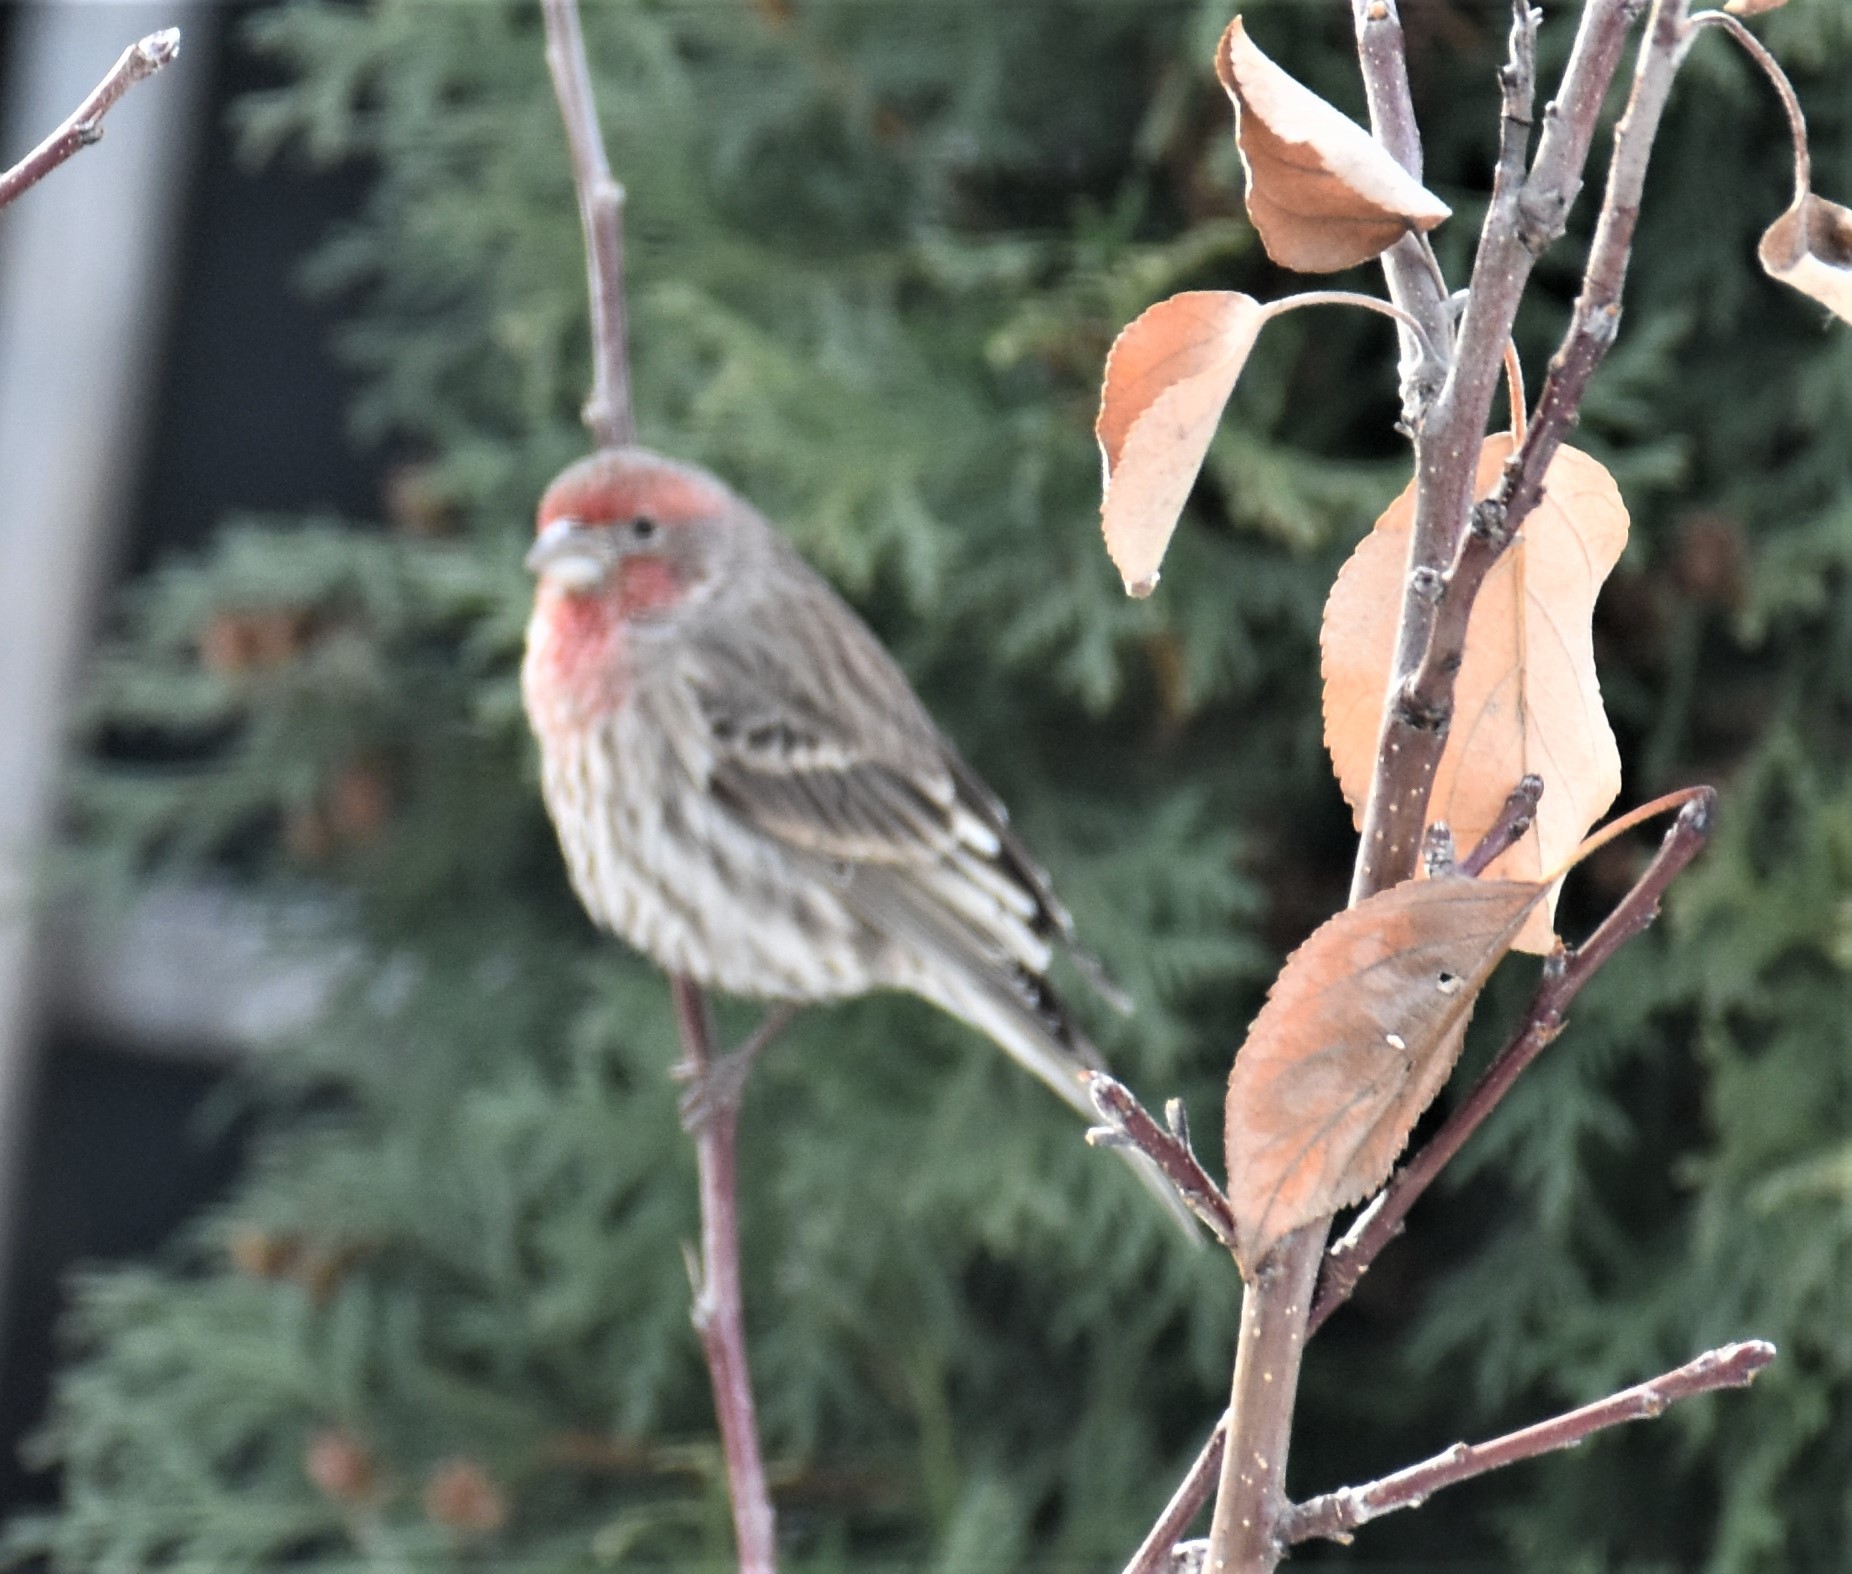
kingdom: Animalia
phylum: Chordata
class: Aves
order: Passeriformes
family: Fringillidae
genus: Haemorhous
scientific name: Haemorhous mexicanus
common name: House finch
